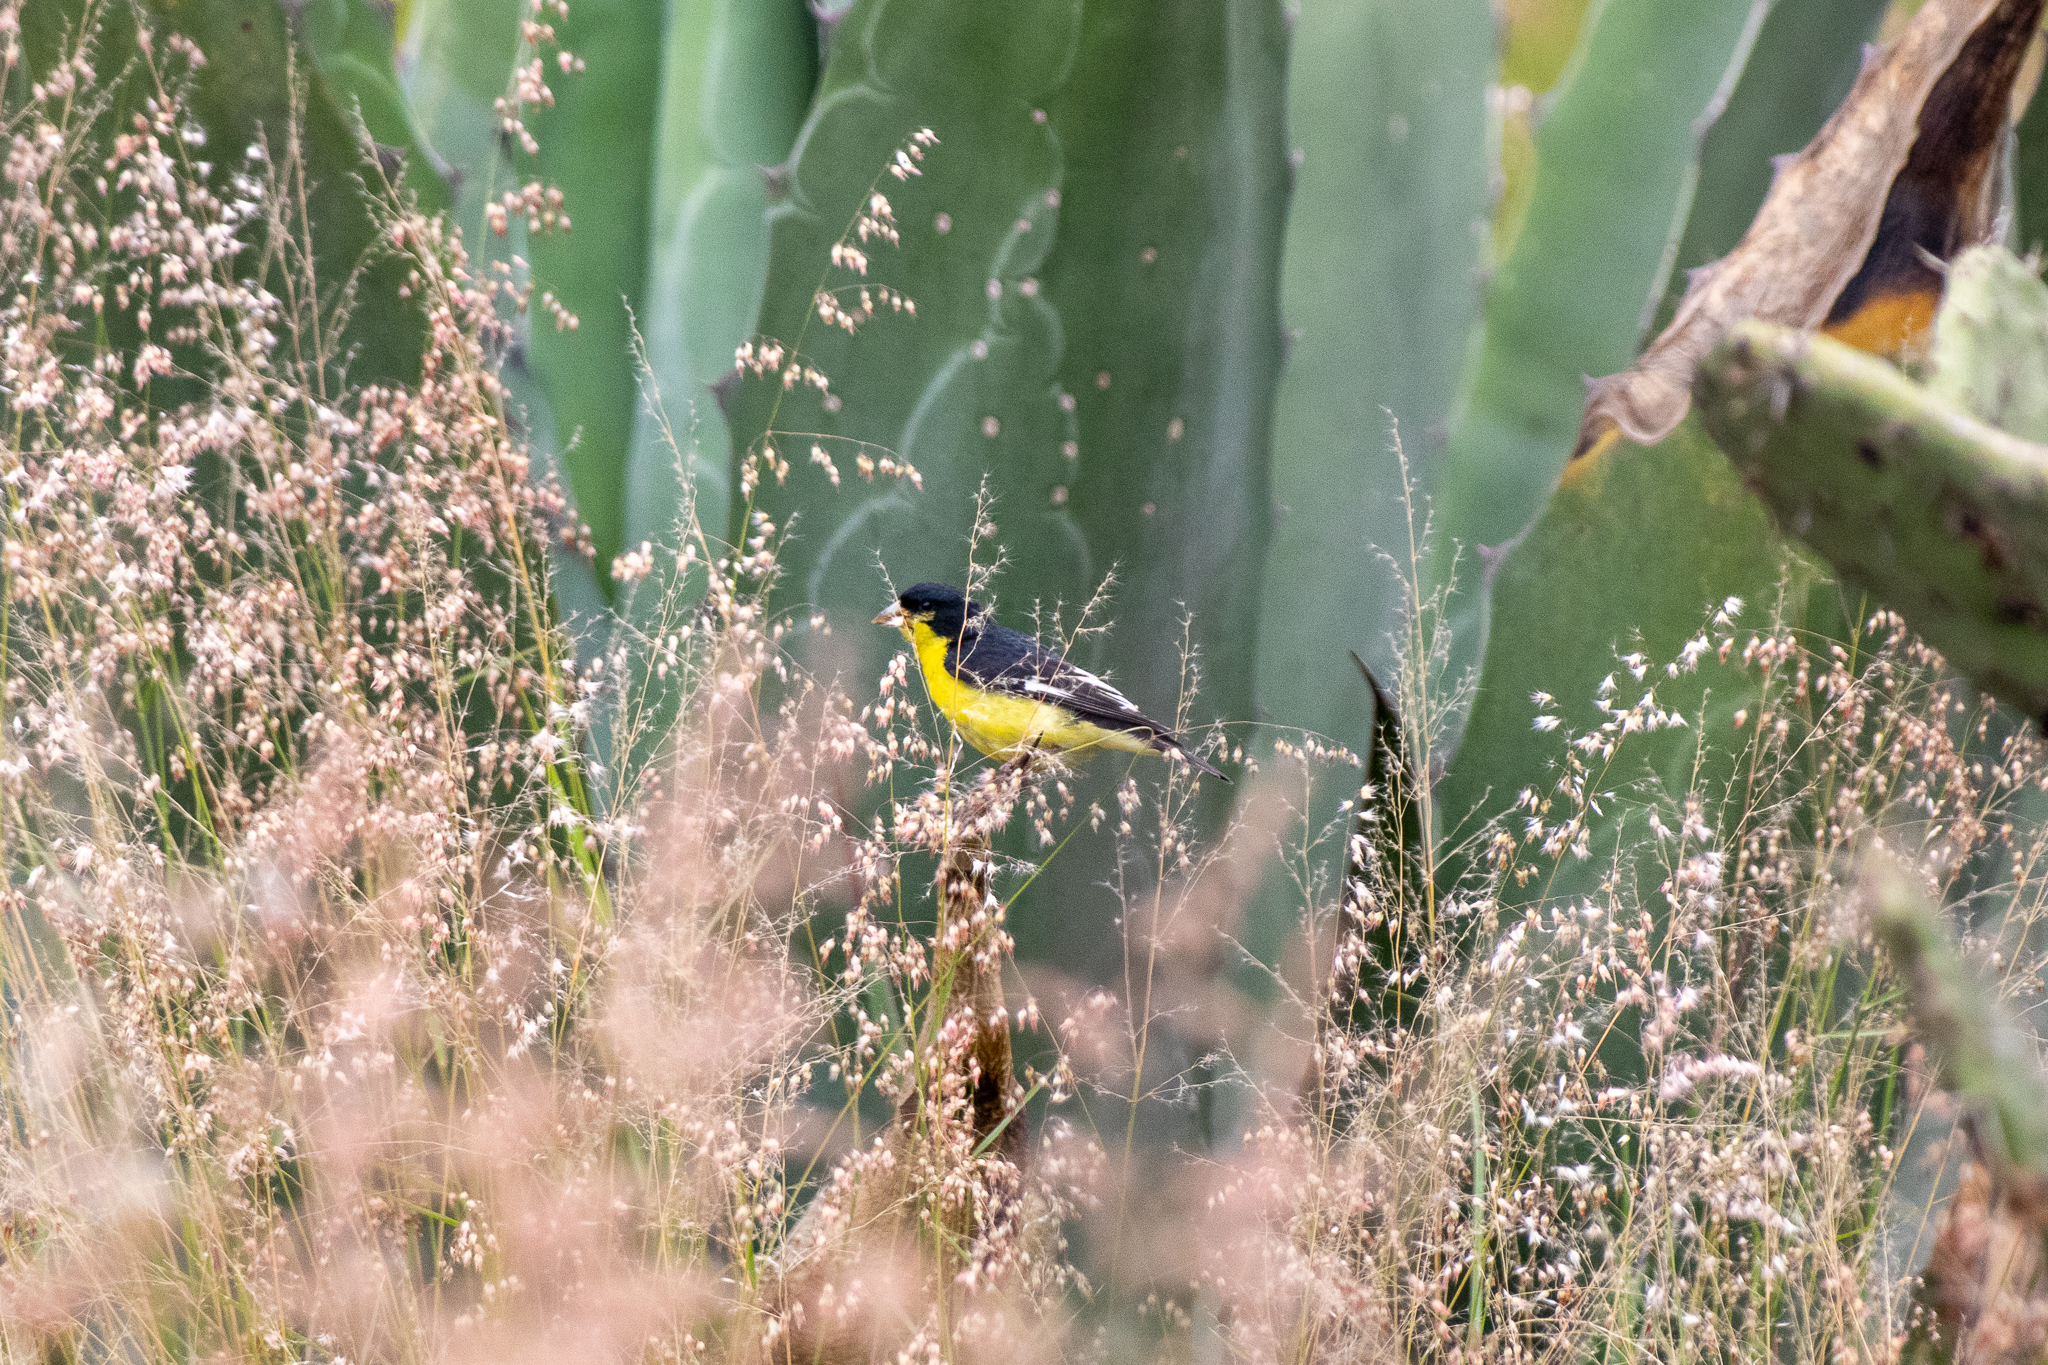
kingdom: Animalia
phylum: Chordata
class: Aves
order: Passeriformes
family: Fringillidae
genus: Spinus
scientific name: Spinus psaltria
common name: Lesser goldfinch
